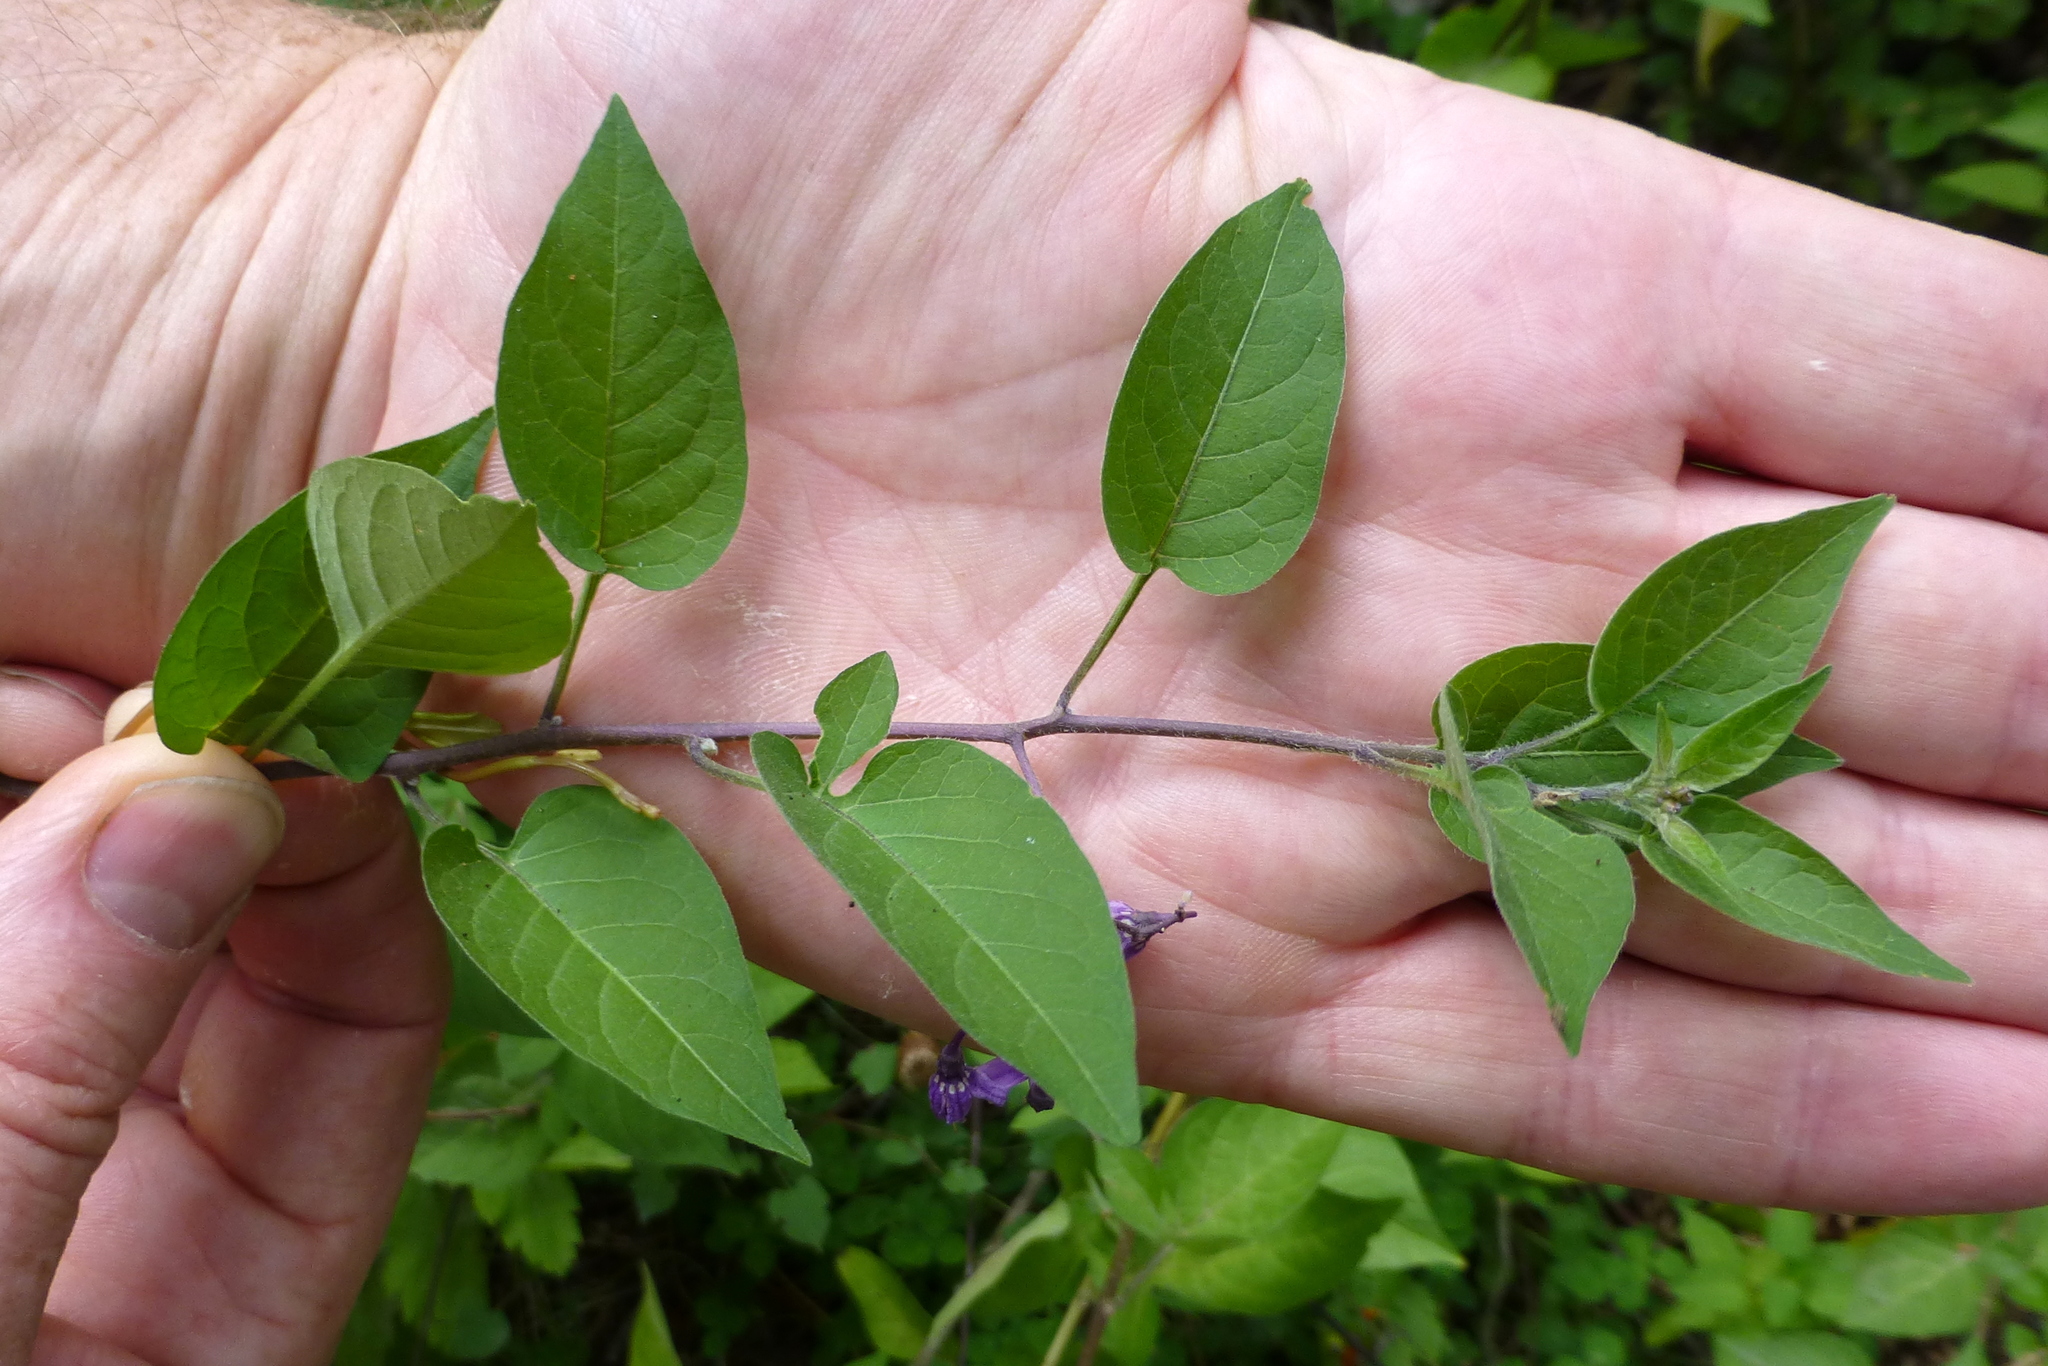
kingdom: Plantae
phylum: Tracheophyta
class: Magnoliopsida
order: Solanales
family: Solanaceae
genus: Solanum
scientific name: Solanum dulcamara
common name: Climbing nightshade
